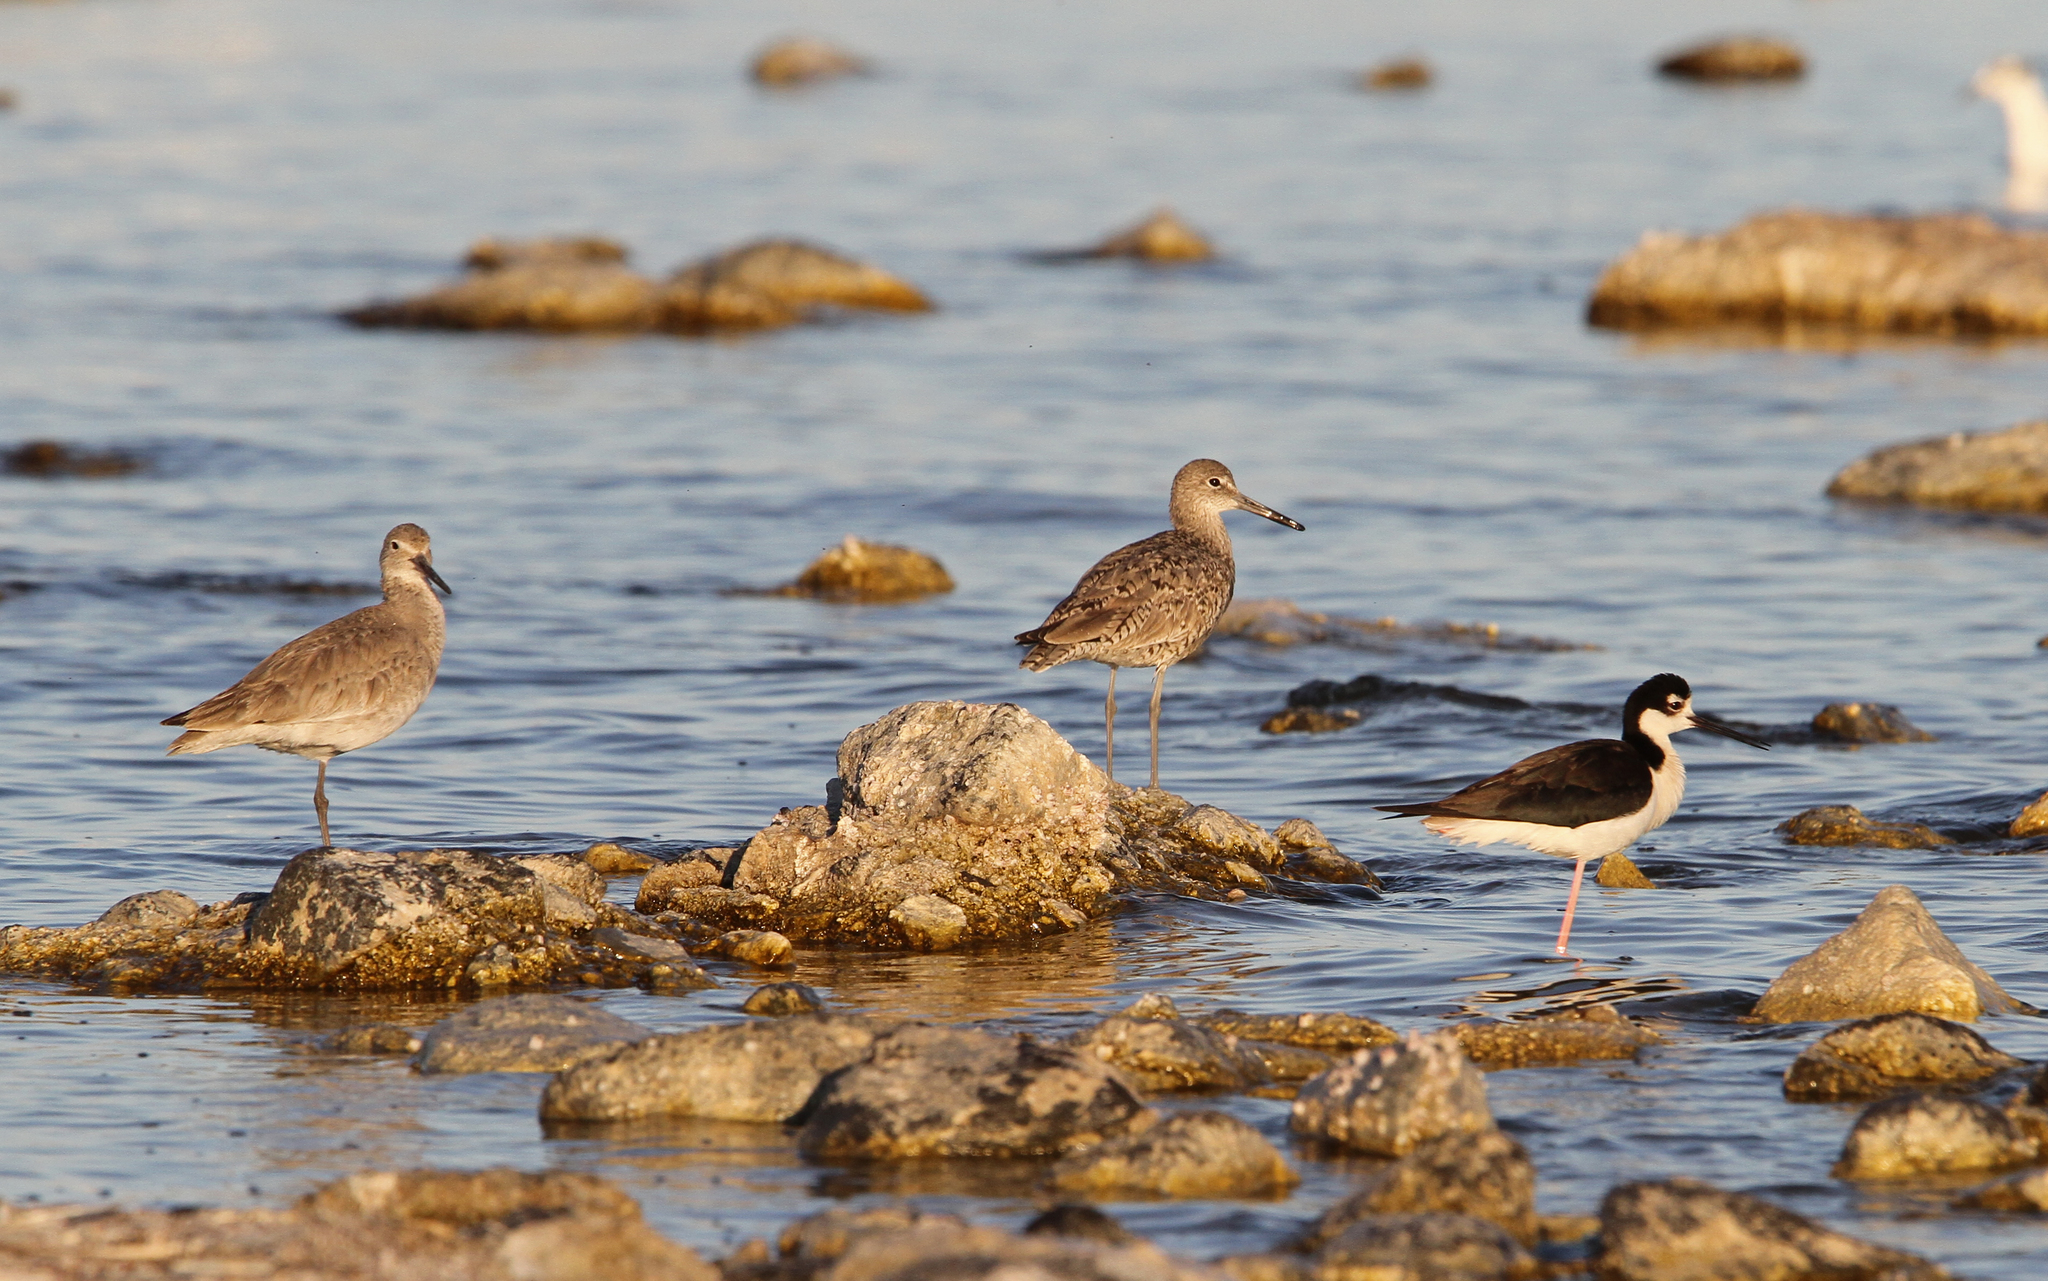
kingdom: Animalia
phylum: Chordata
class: Aves
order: Charadriiformes
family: Scolopacidae
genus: Tringa
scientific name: Tringa semipalmata
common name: Willet
